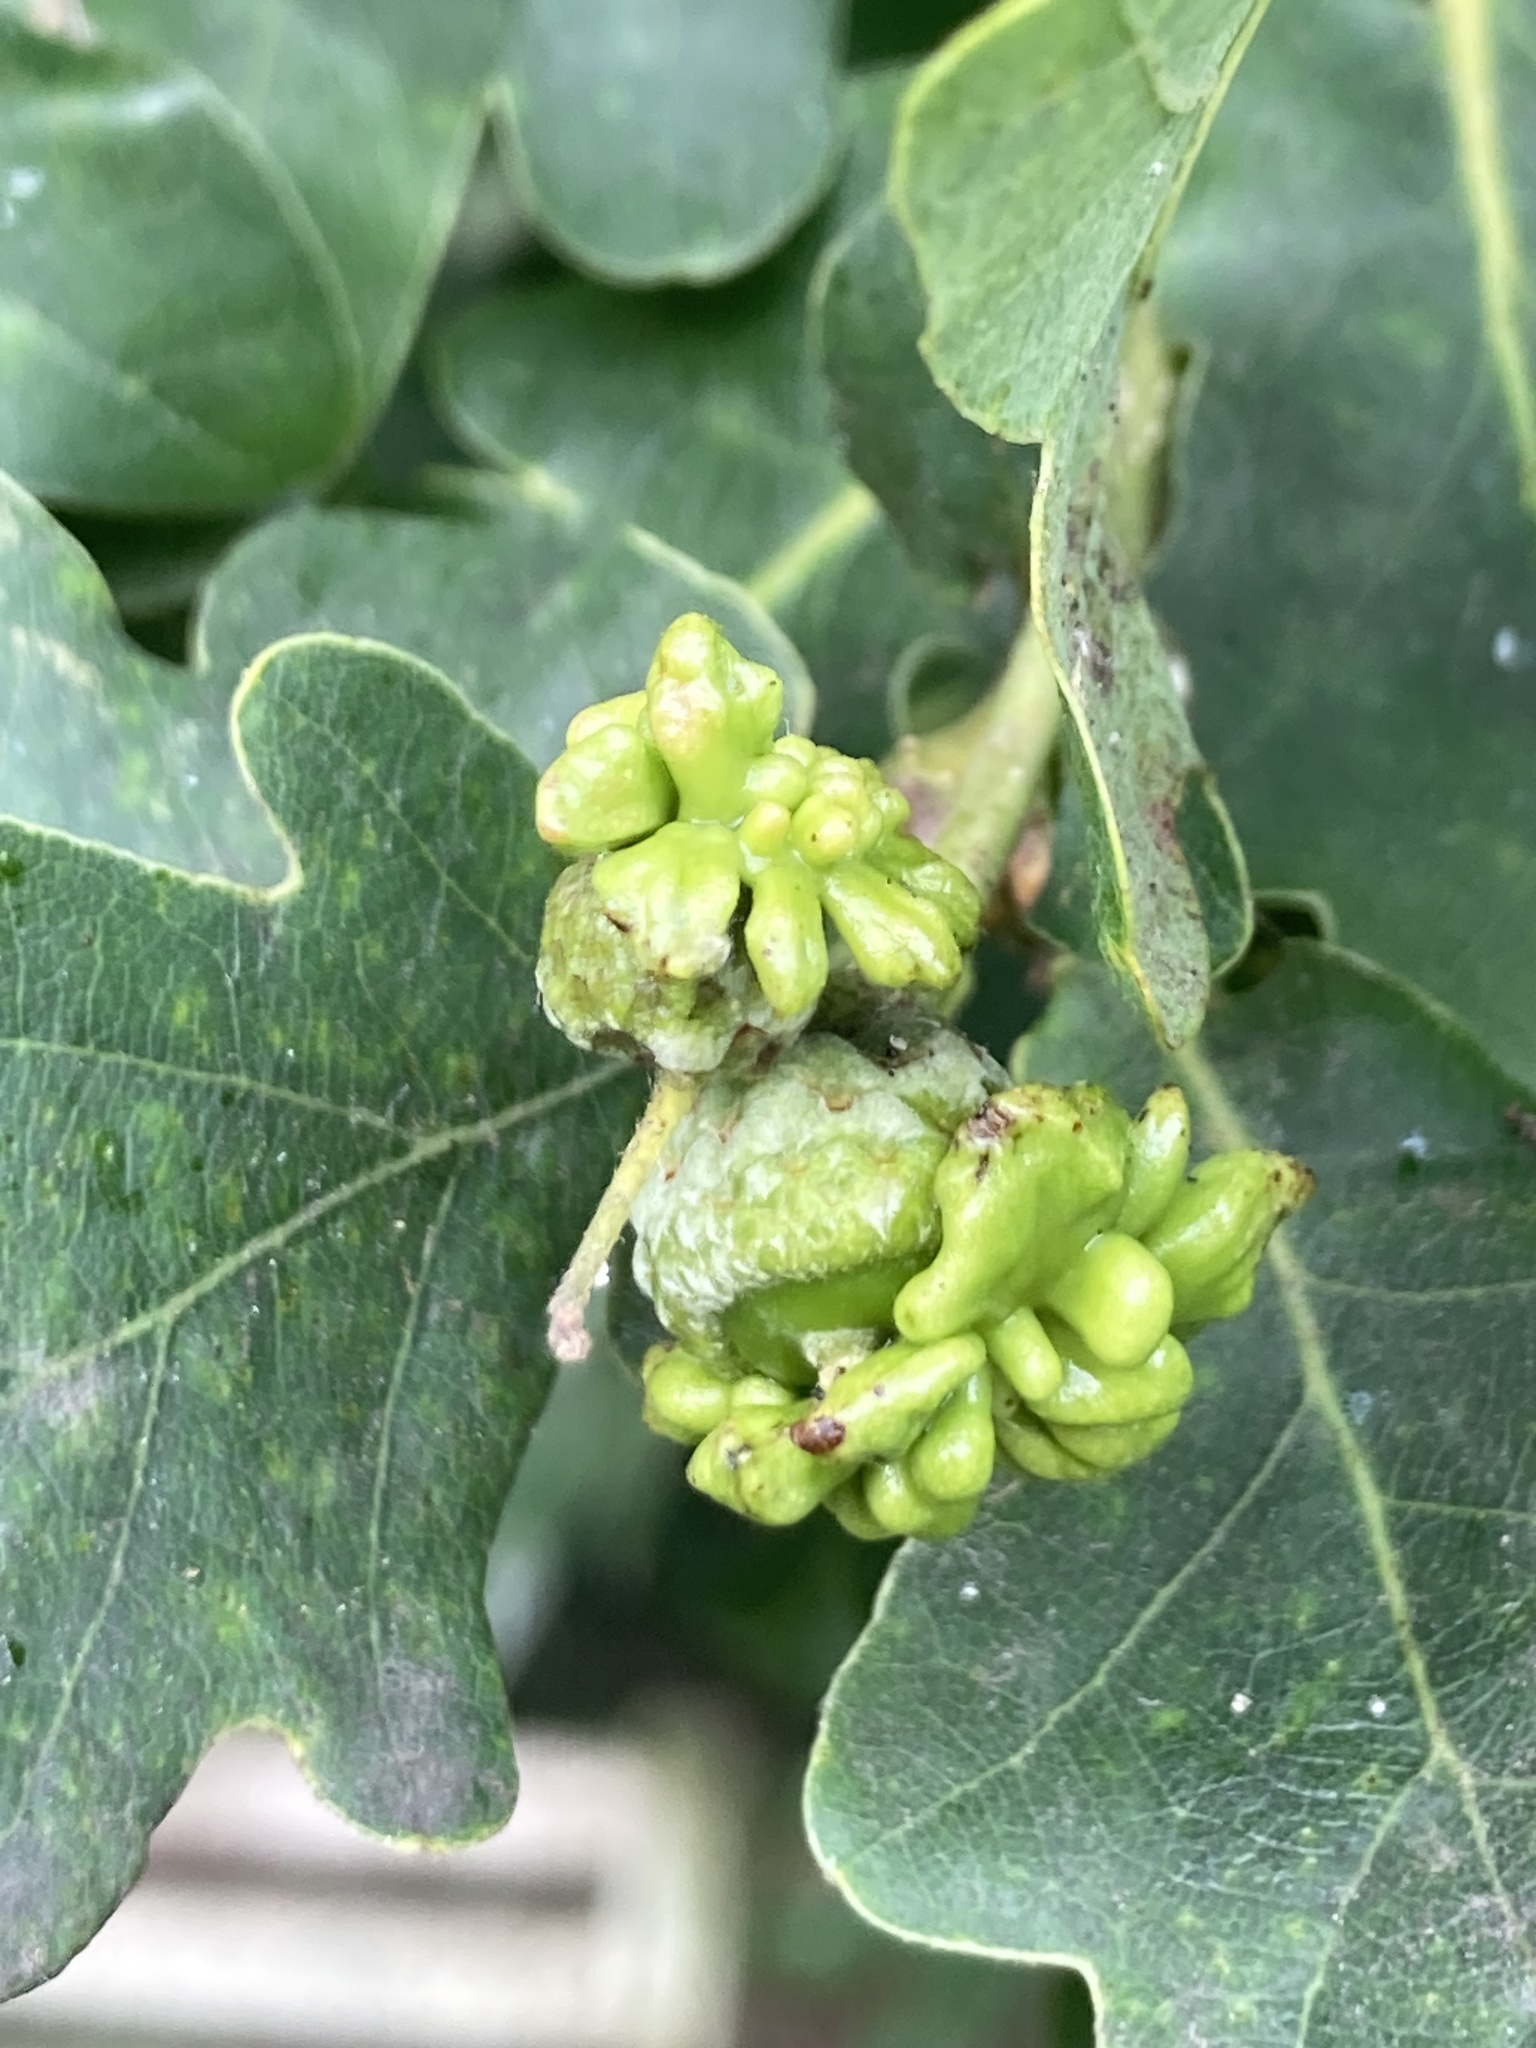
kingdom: Animalia
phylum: Arthropoda
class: Insecta
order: Hymenoptera
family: Cynipidae
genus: Andricus
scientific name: Andricus quercuscalicis
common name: Knopper gall
